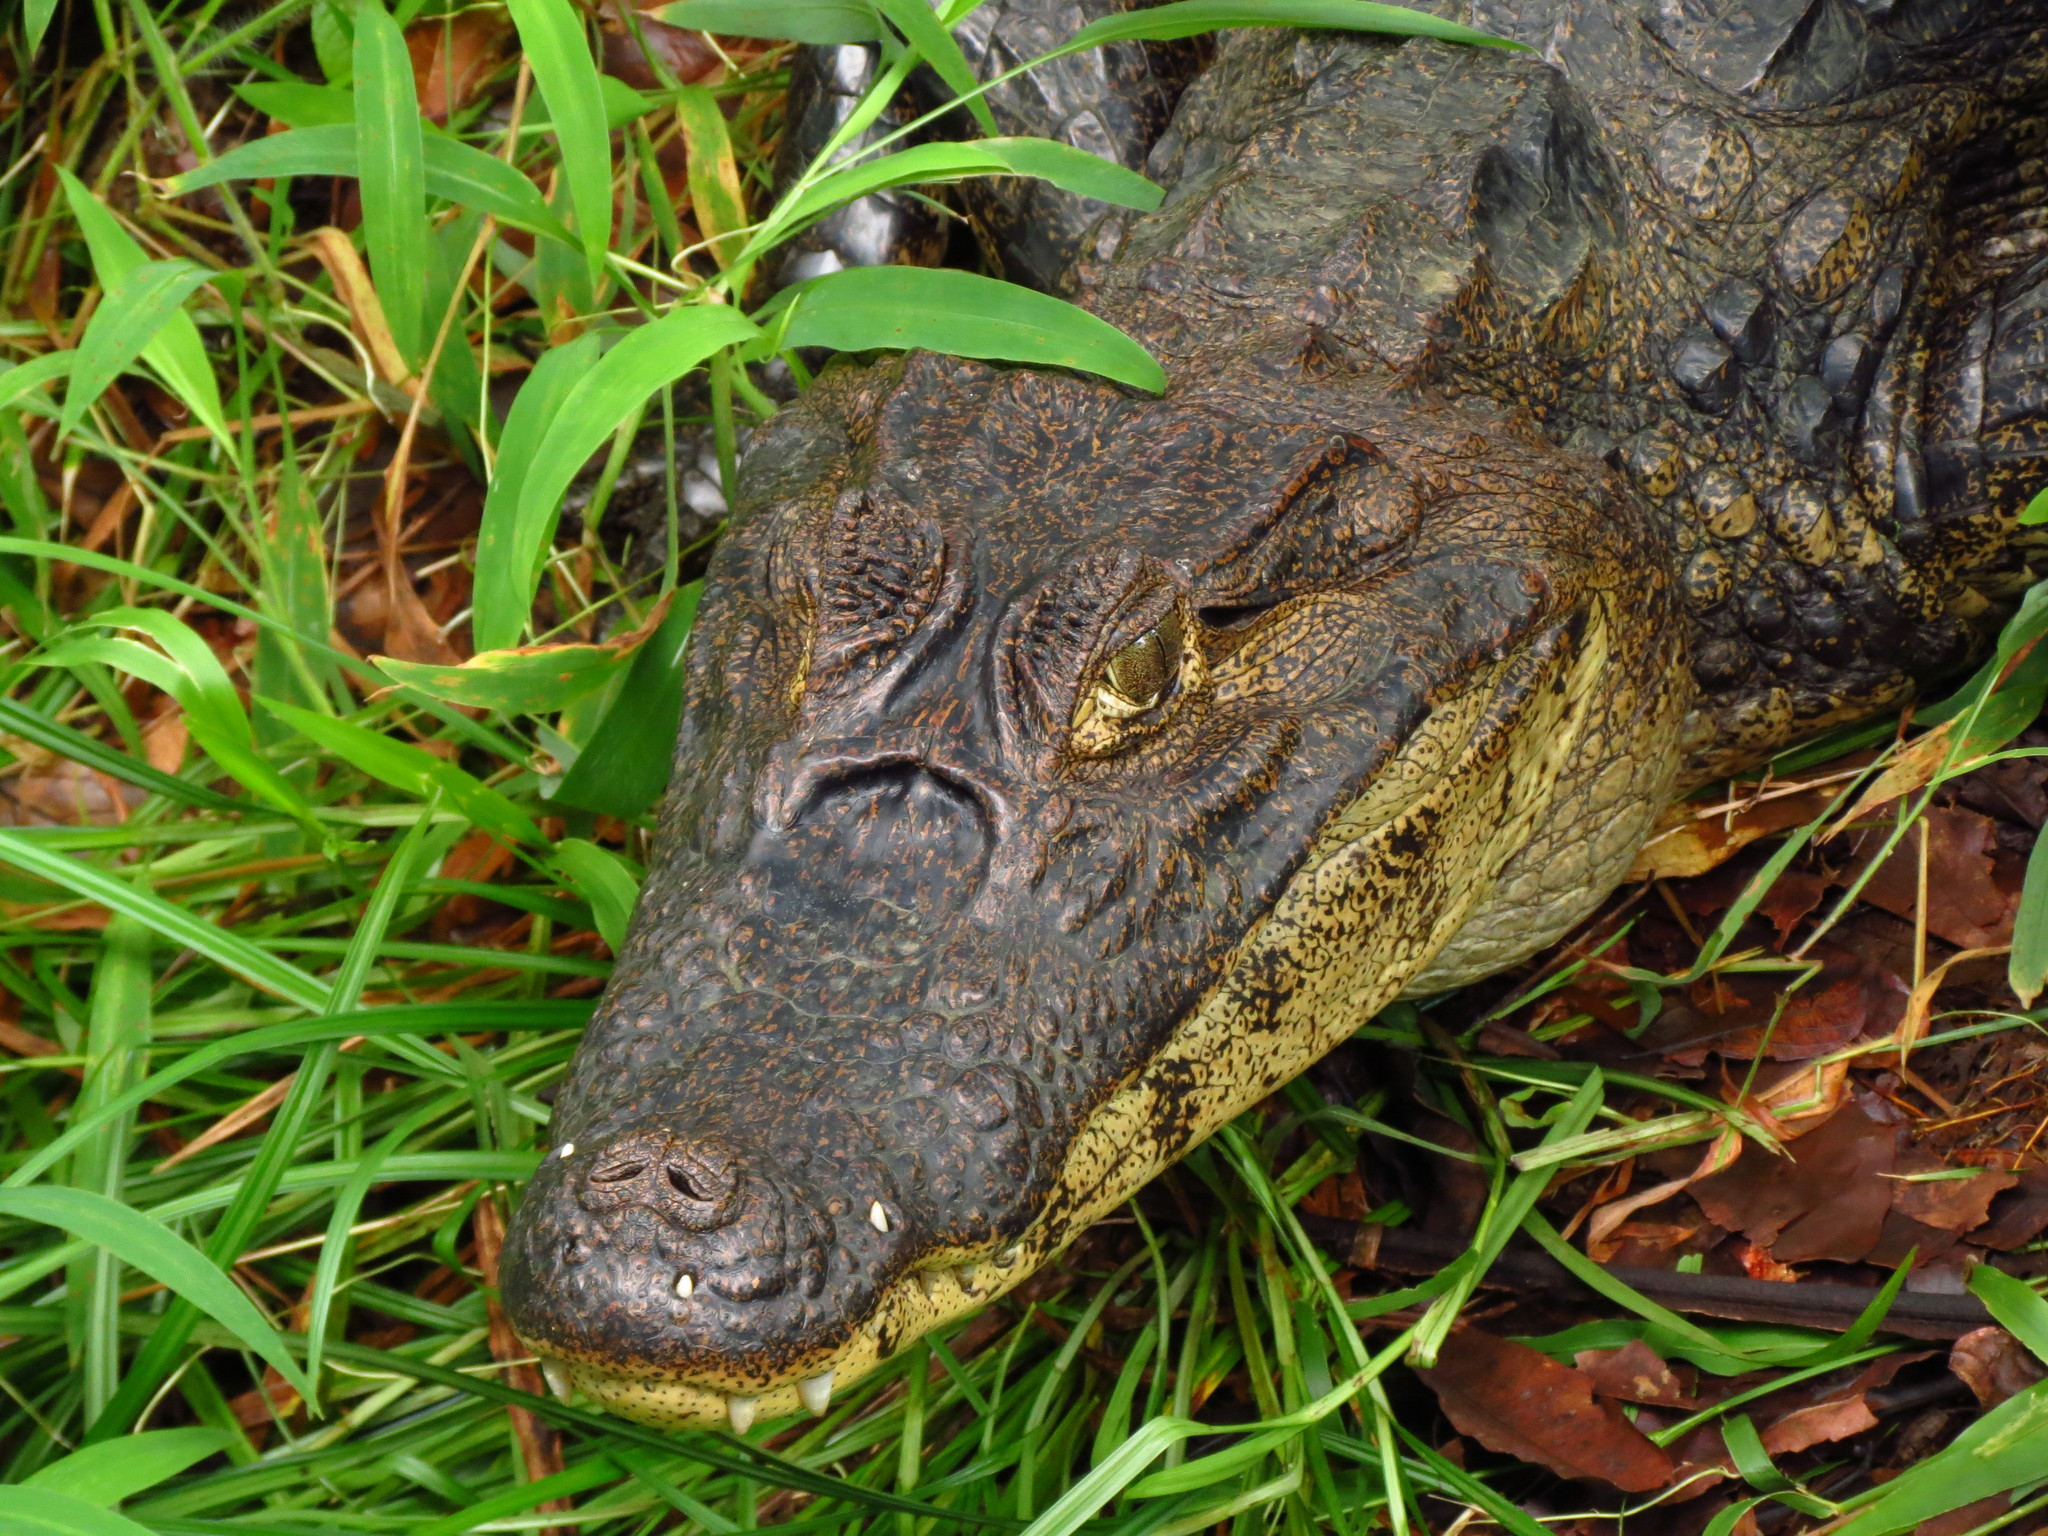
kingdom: Animalia
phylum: Chordata
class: Crocodylia
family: Alligatoridae
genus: Caiman
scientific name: Caiman crocodilus
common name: Common caiman
